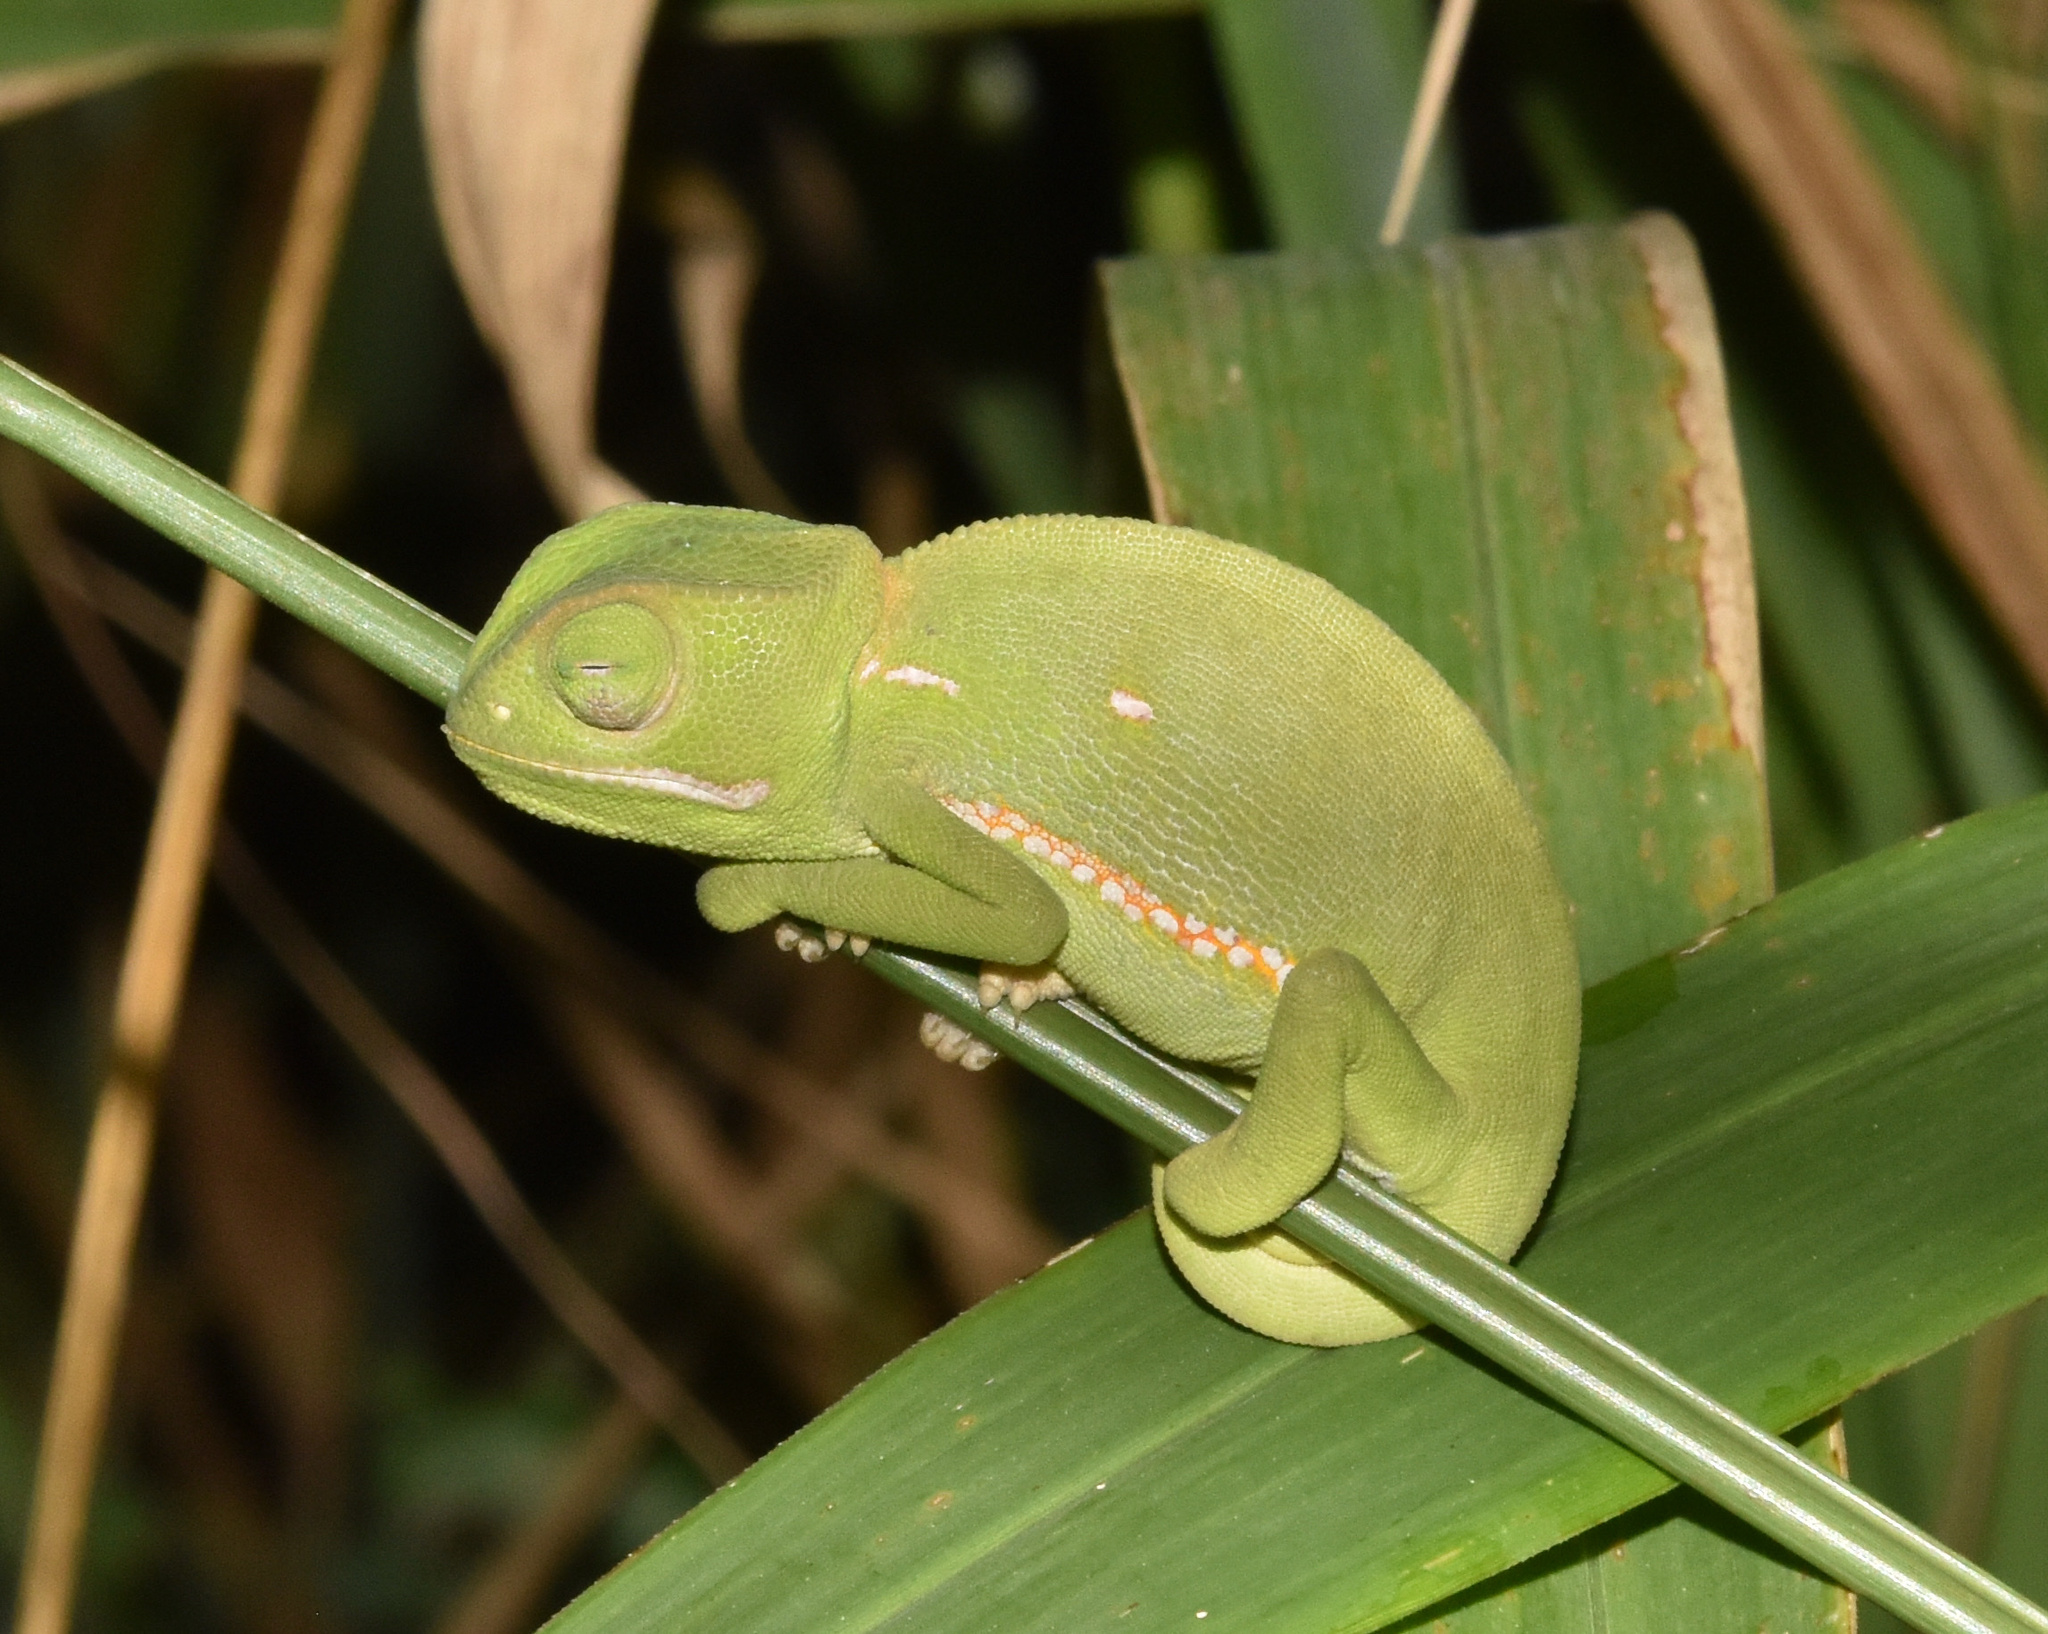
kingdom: Animalia
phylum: Chordata
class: Squamata
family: Chamaeleonidae
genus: Chamaeleo
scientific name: Chamaeleo dilepis
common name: Flapneck chameleon
